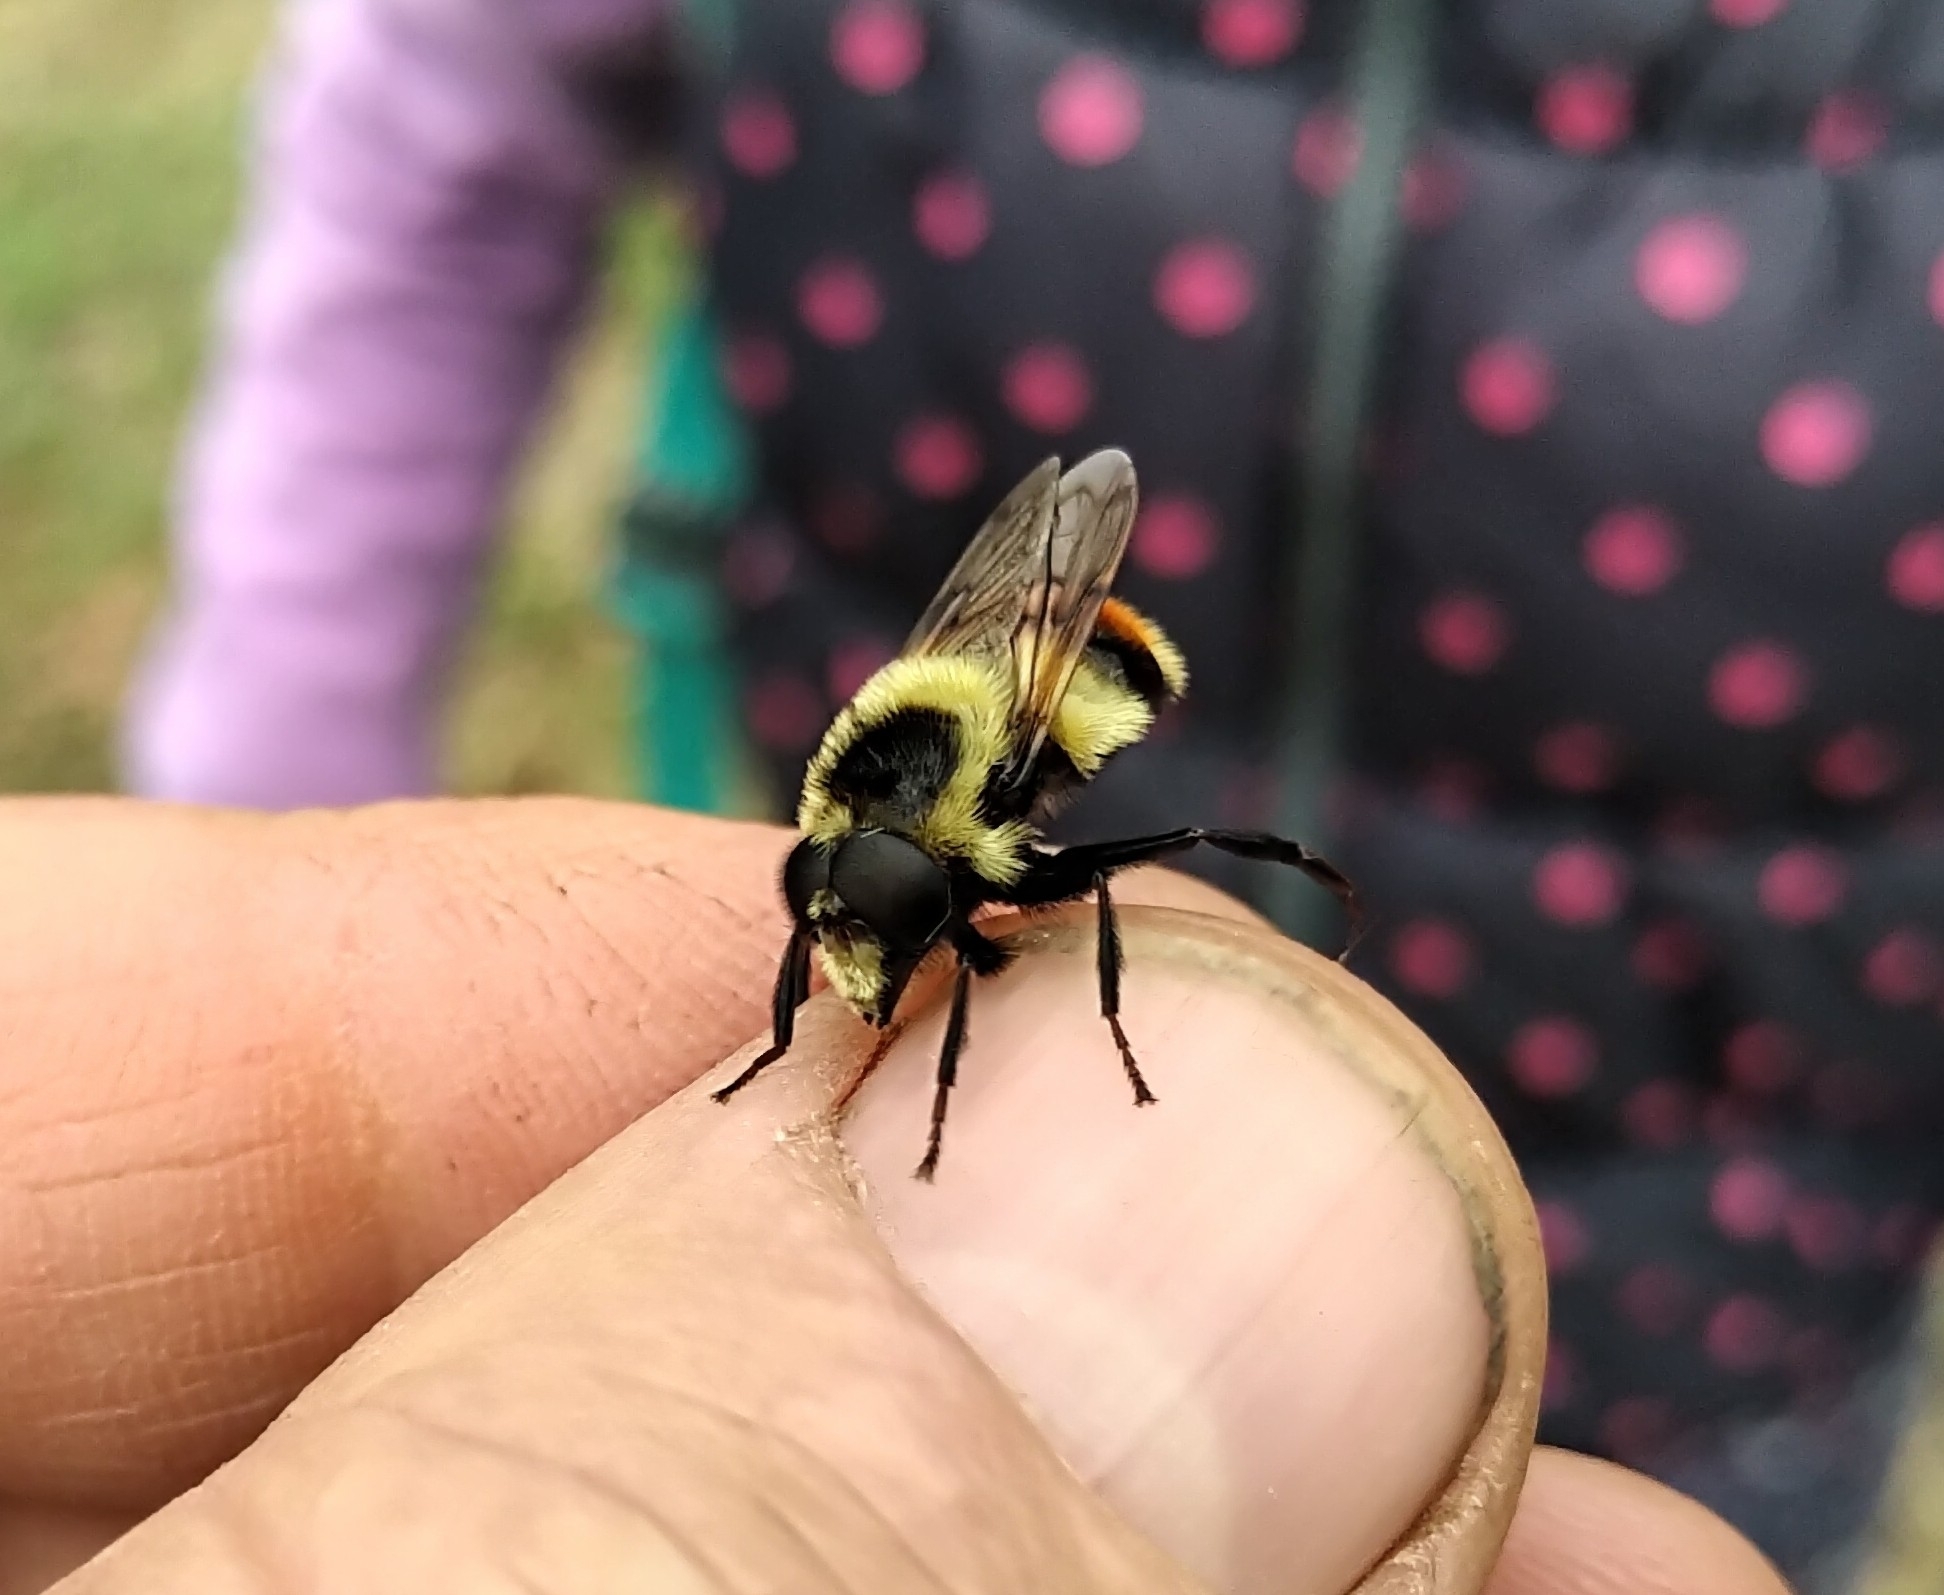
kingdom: Animalia
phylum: Arthropoda
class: Insecta
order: Diptera
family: Syrphidae
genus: Volucella
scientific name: Volucella facialis
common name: Yellow-faced swiftwing
